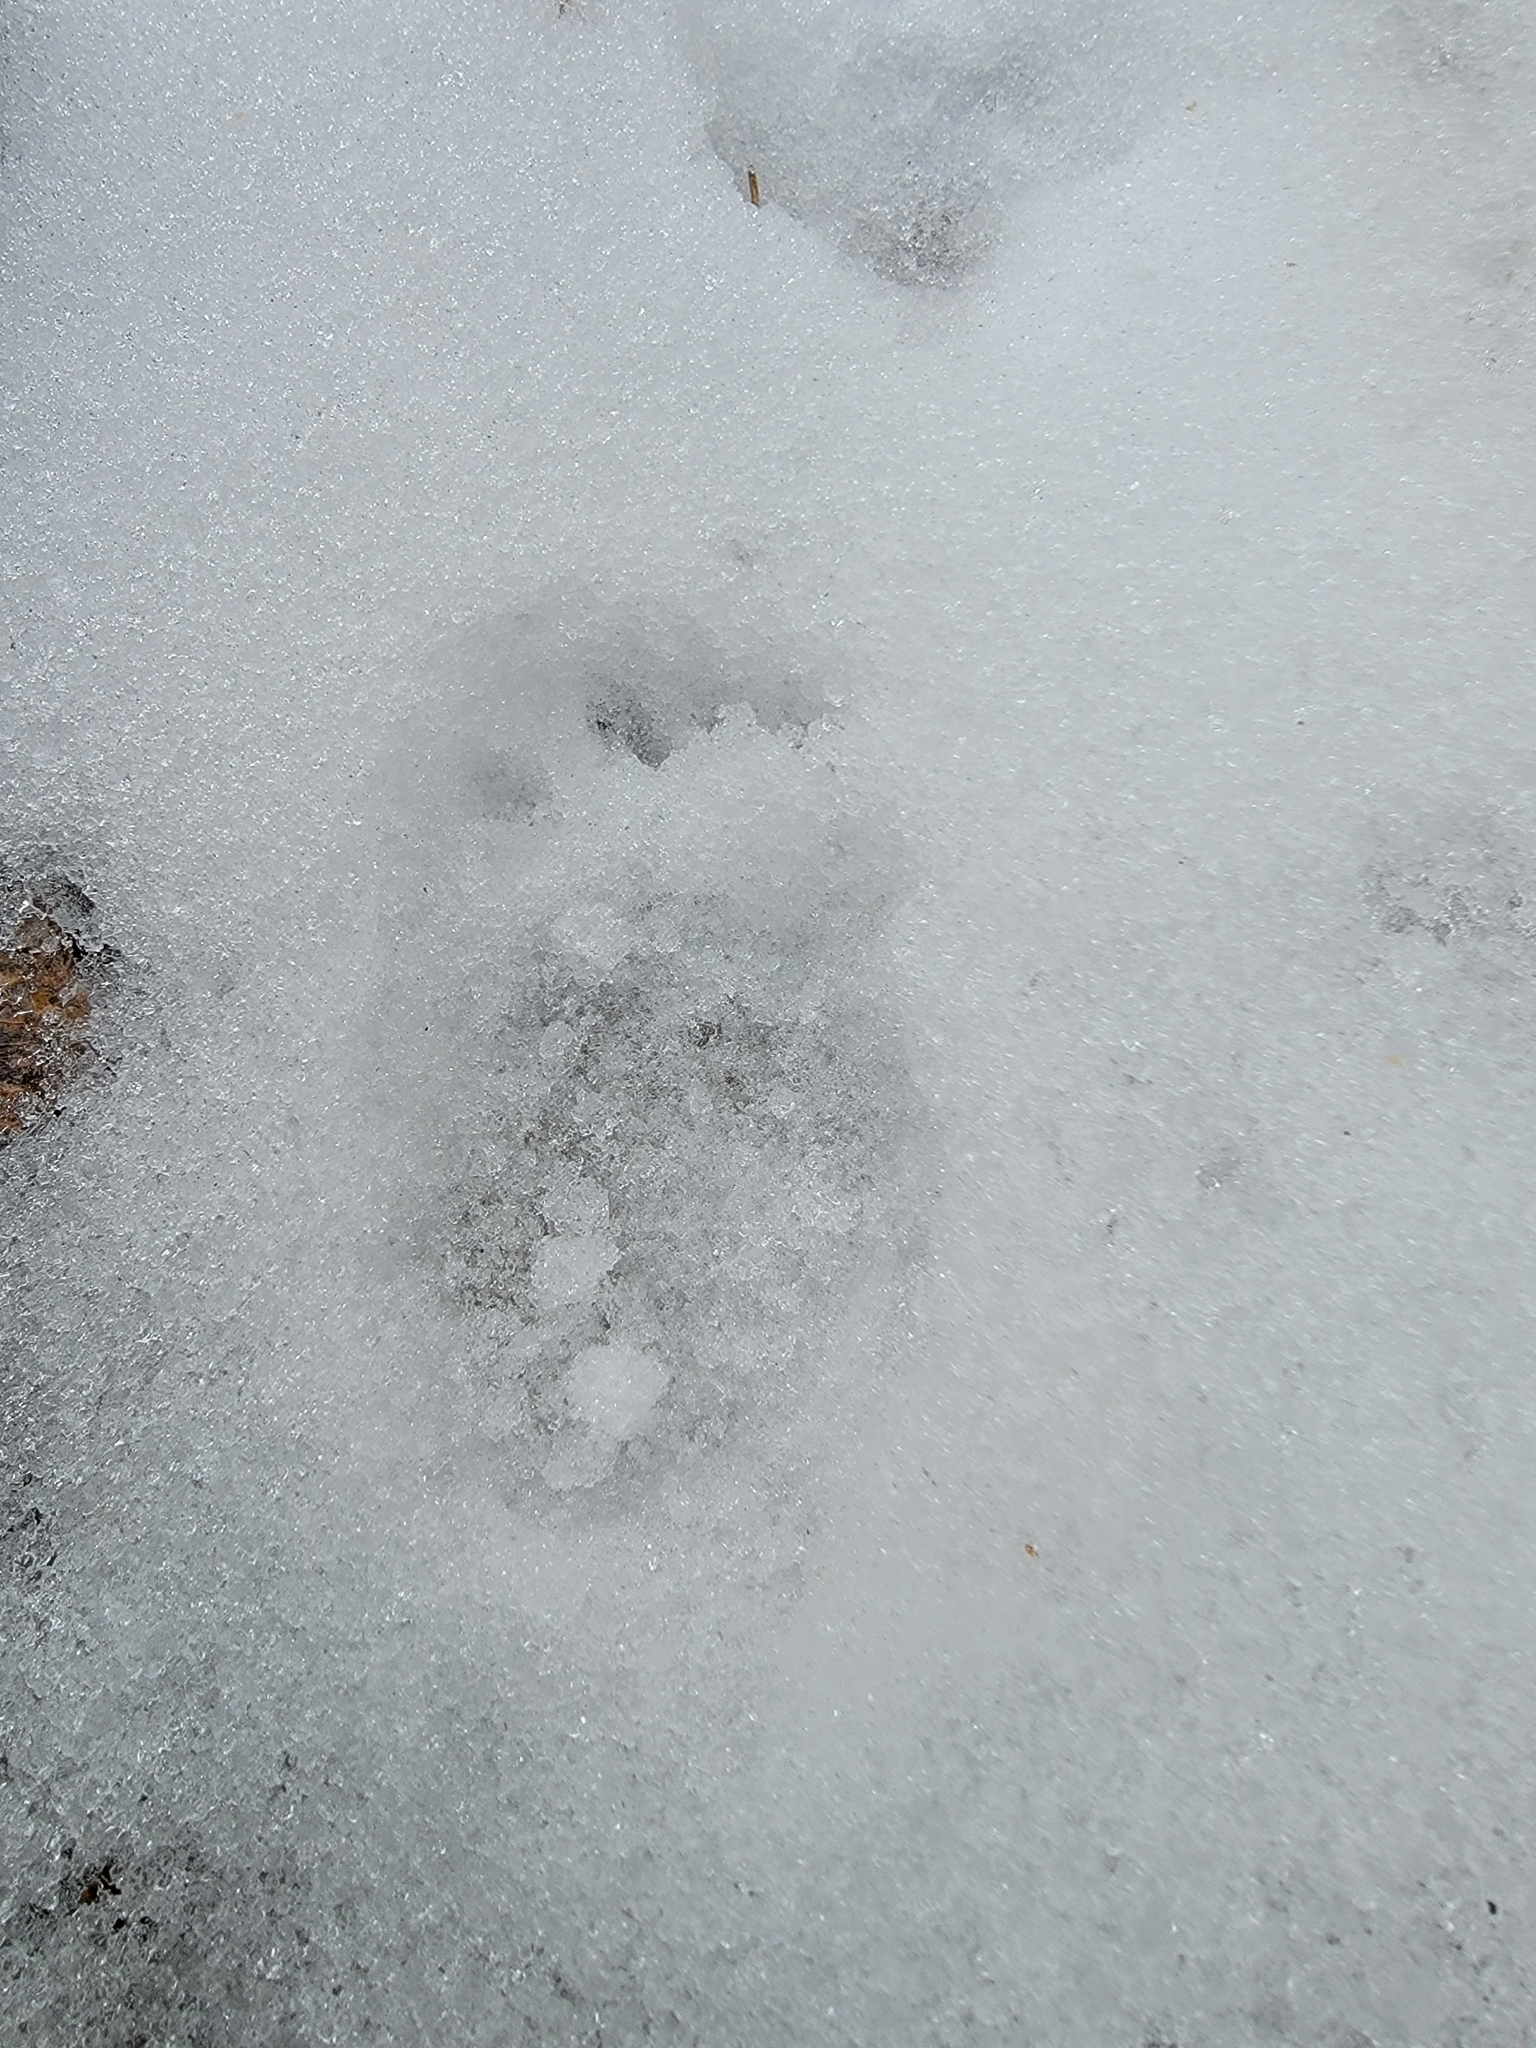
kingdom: Animalia
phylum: Chordata
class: Mammalia
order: Rodentia
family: Erethizontidae
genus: Erethizon
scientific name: Erethizon dorsatus
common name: North american porcupine
